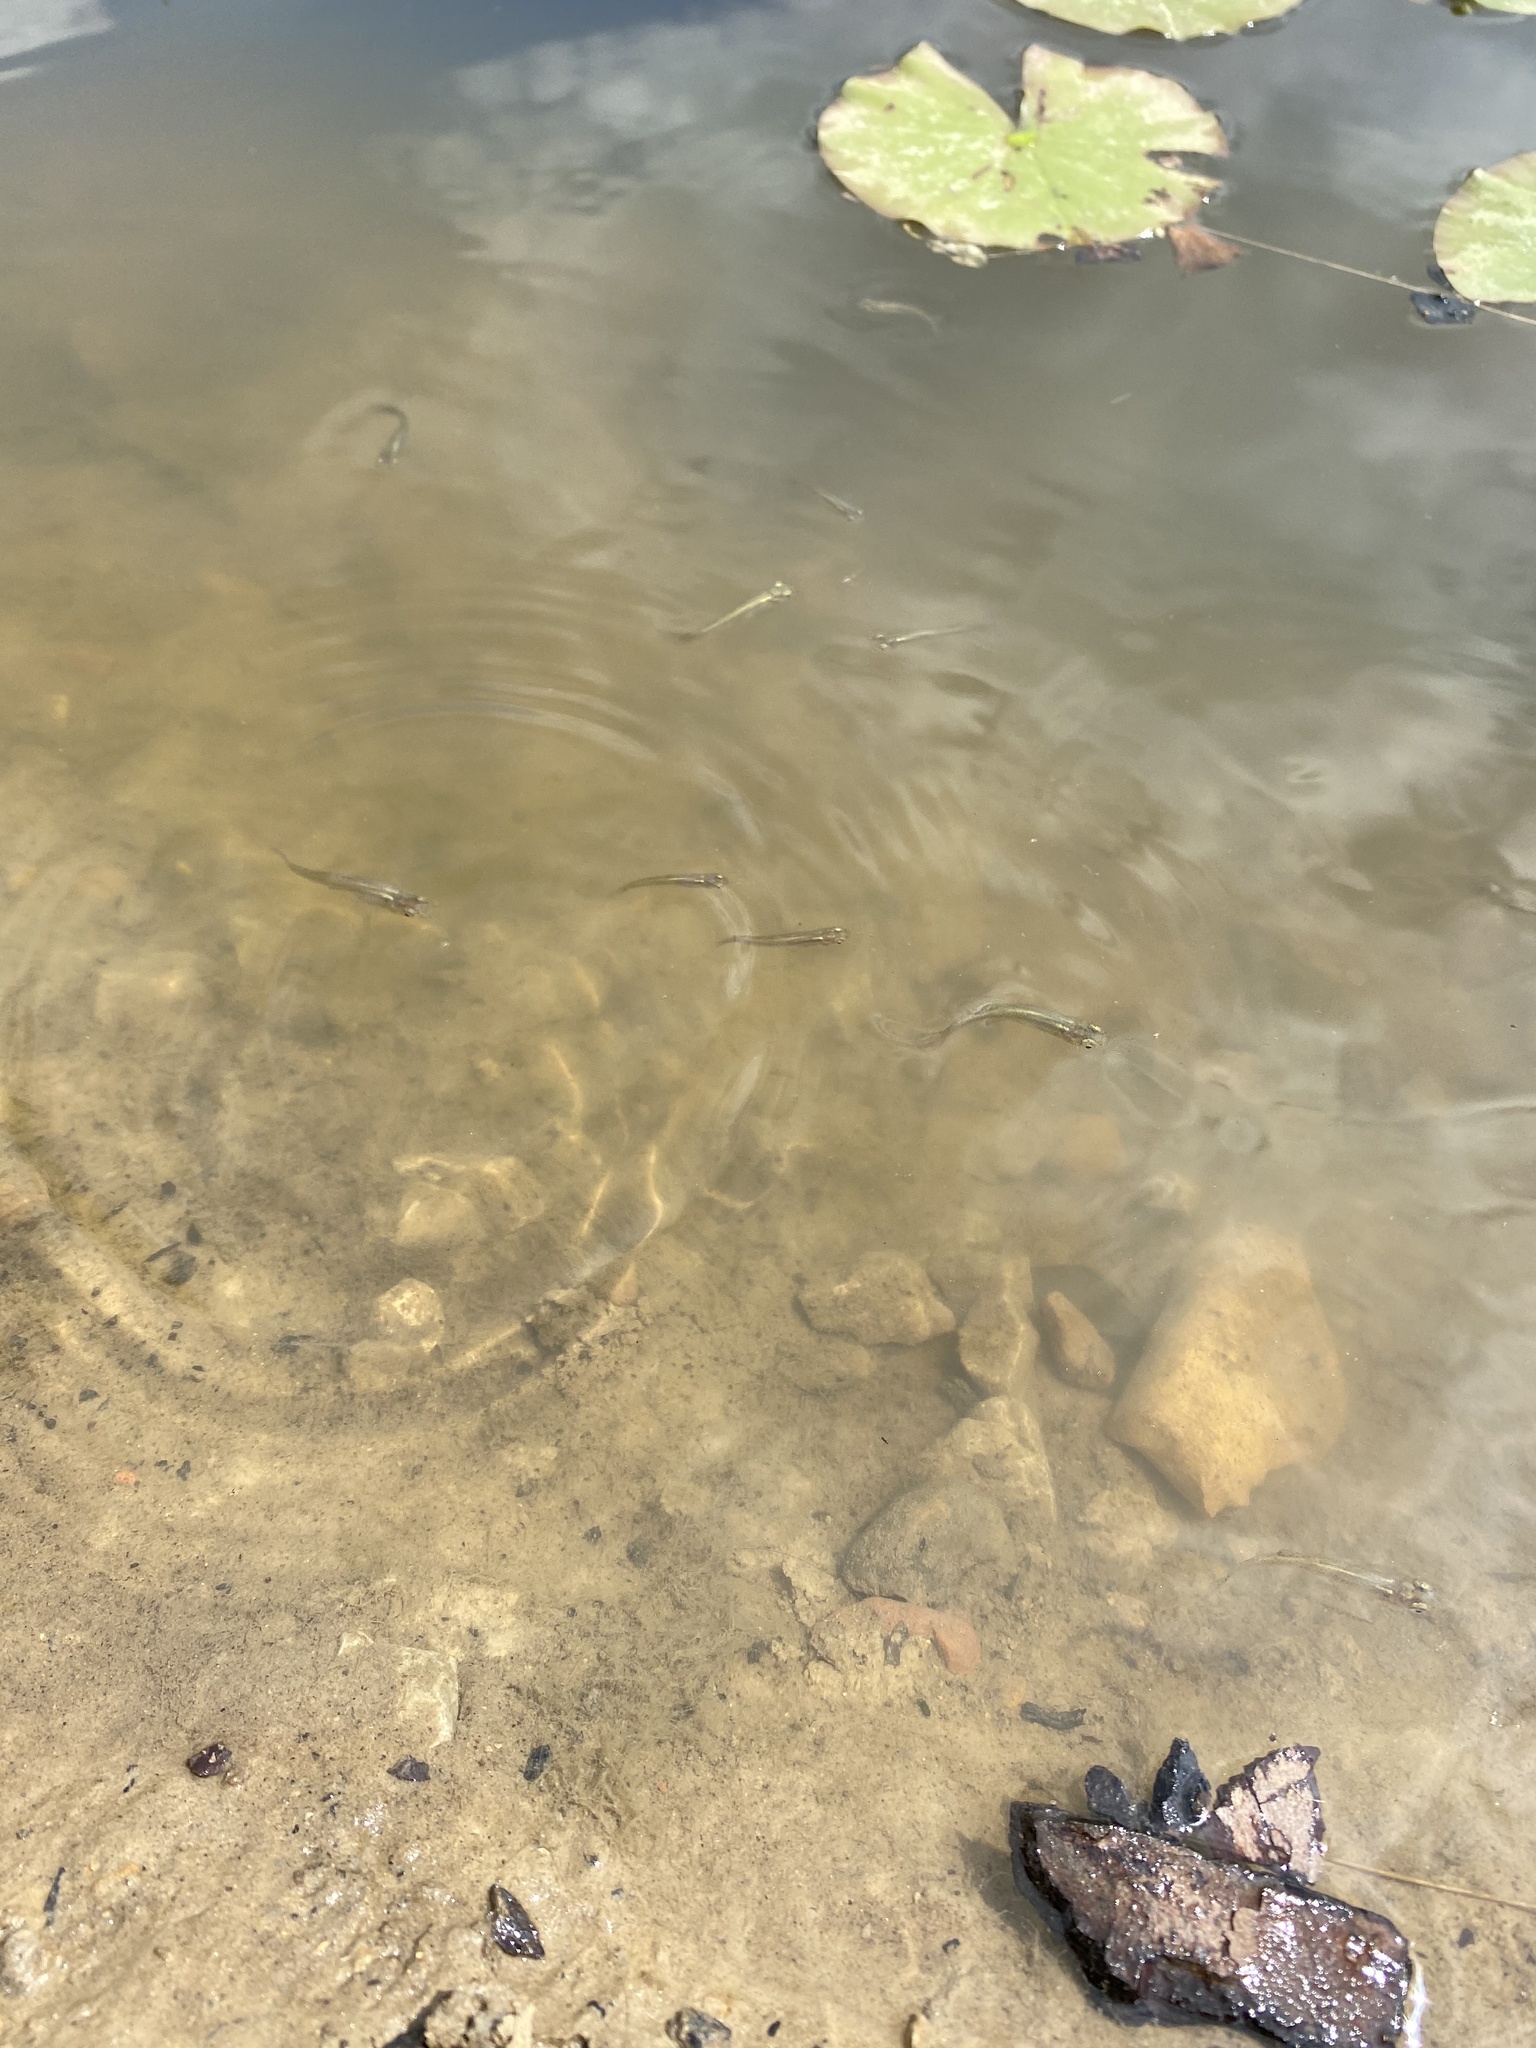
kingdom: Animalia
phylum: Chordata
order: Cyprinodontiformes
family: Poeciliidae
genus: Gambusia
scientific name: Gambusia affinis
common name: Mosquitofish
